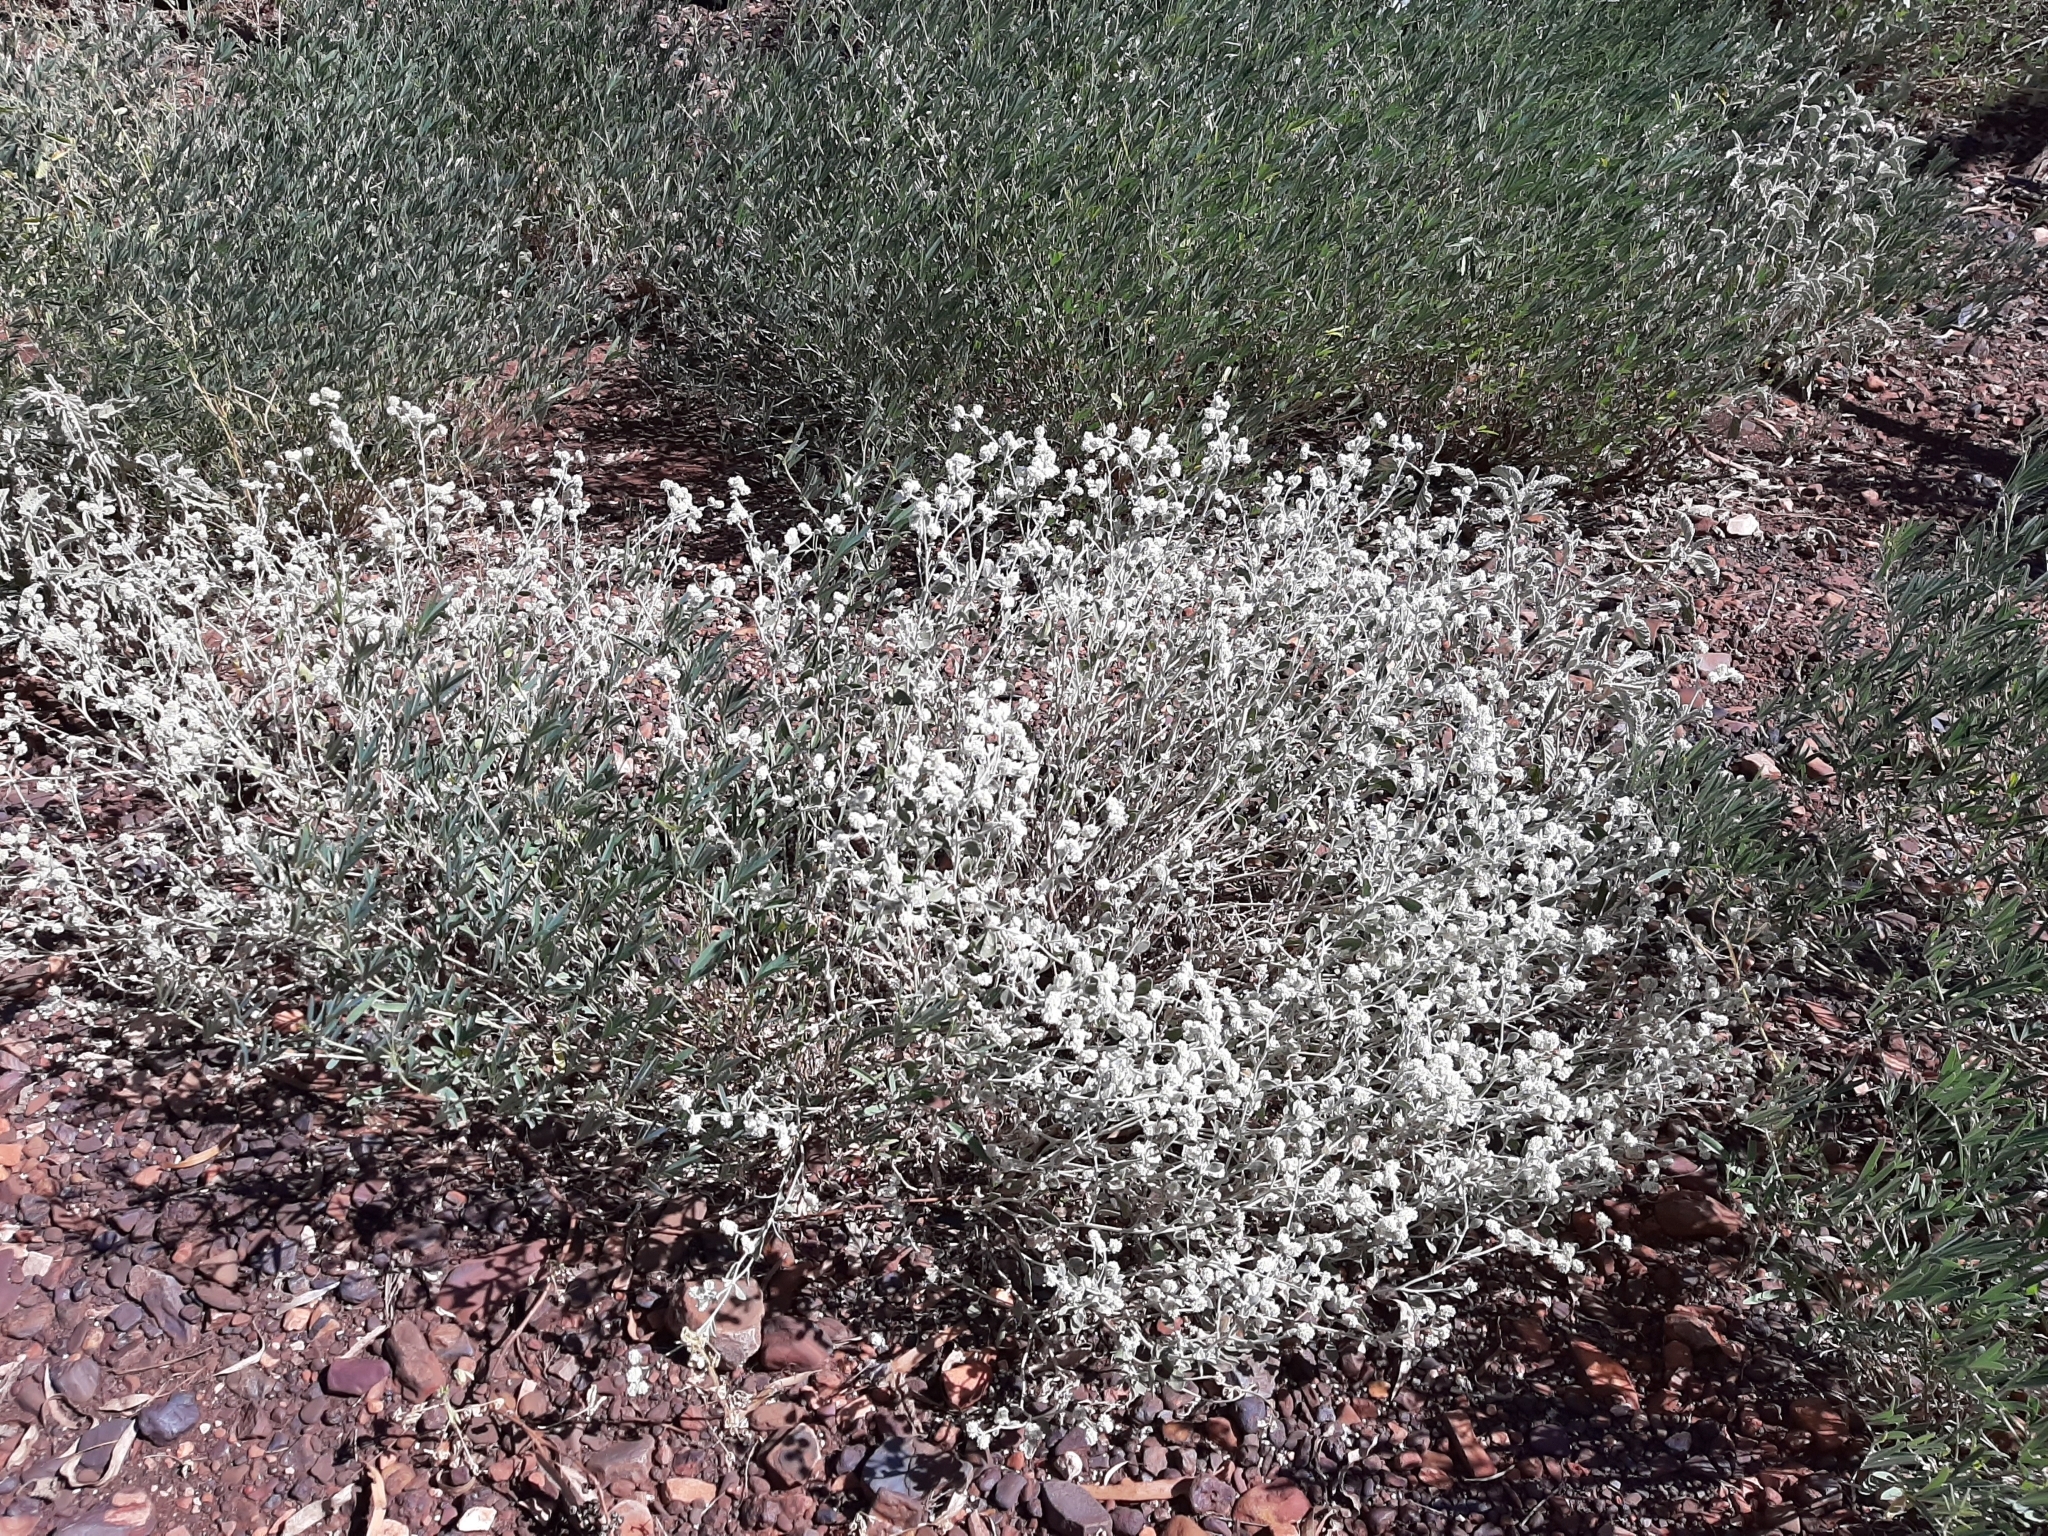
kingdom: Plantae
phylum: Tracheophyta
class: Magnoliopsida
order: Caryophyllales
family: Amaranthaceae
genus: Ptilotus
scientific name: Ptilotus astrolasius
